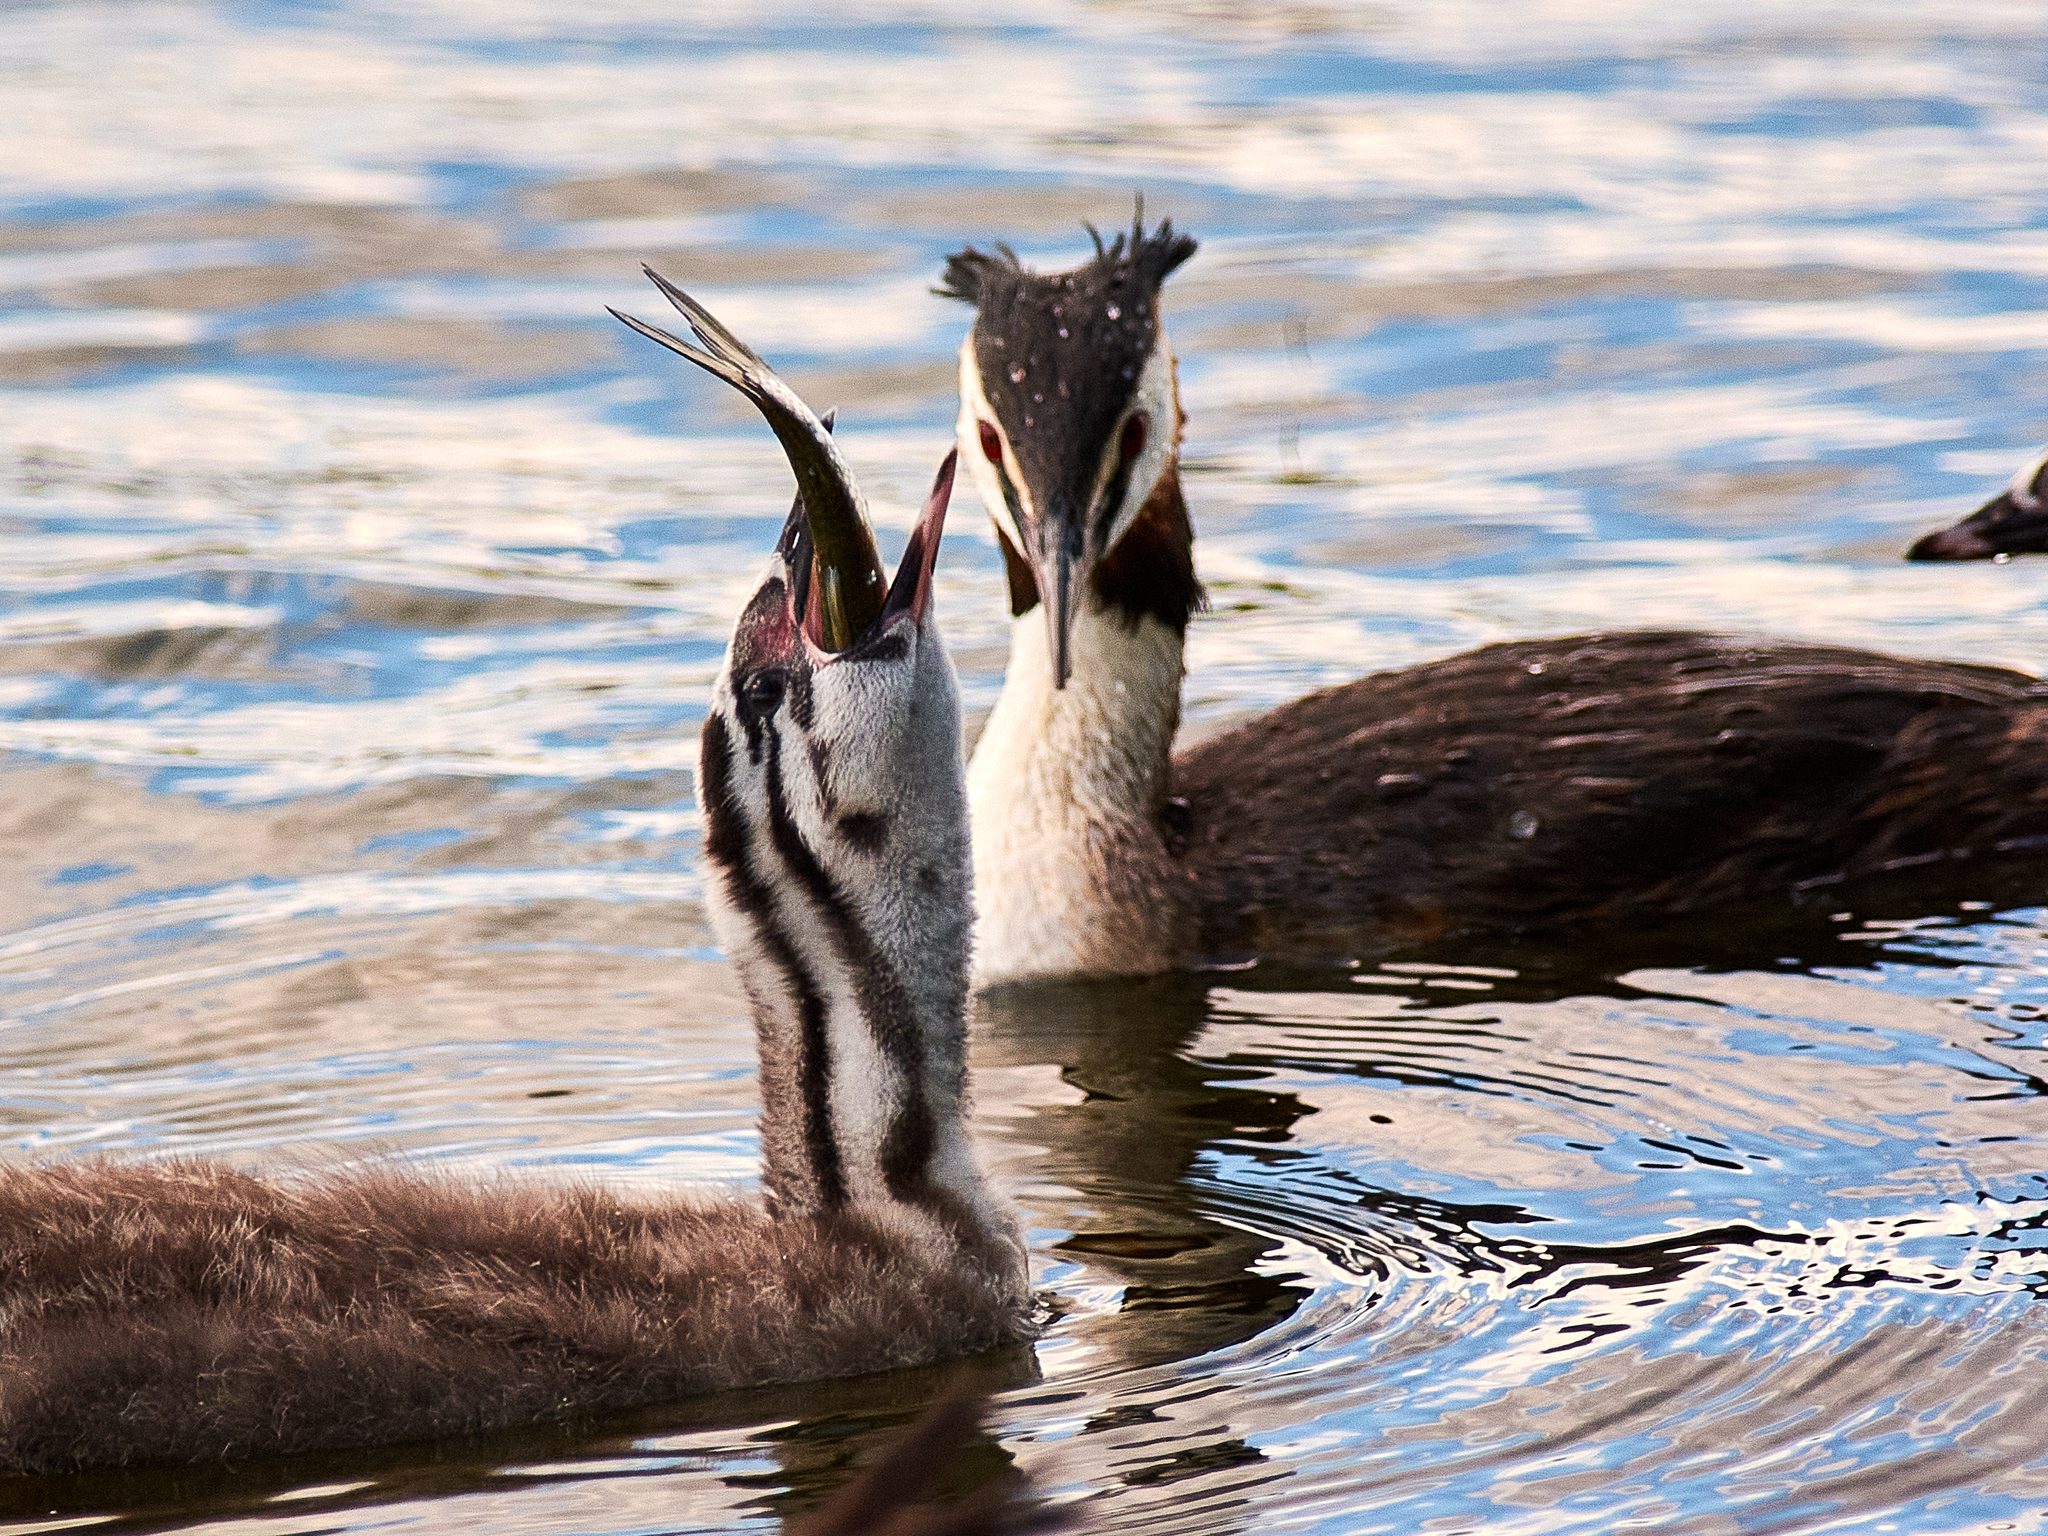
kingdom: Animalia
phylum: Chordata
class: Aves
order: Podicipediformes
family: Podicipedidae
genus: Podiceps
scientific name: Podiceps cristatus
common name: Great crested grebe
